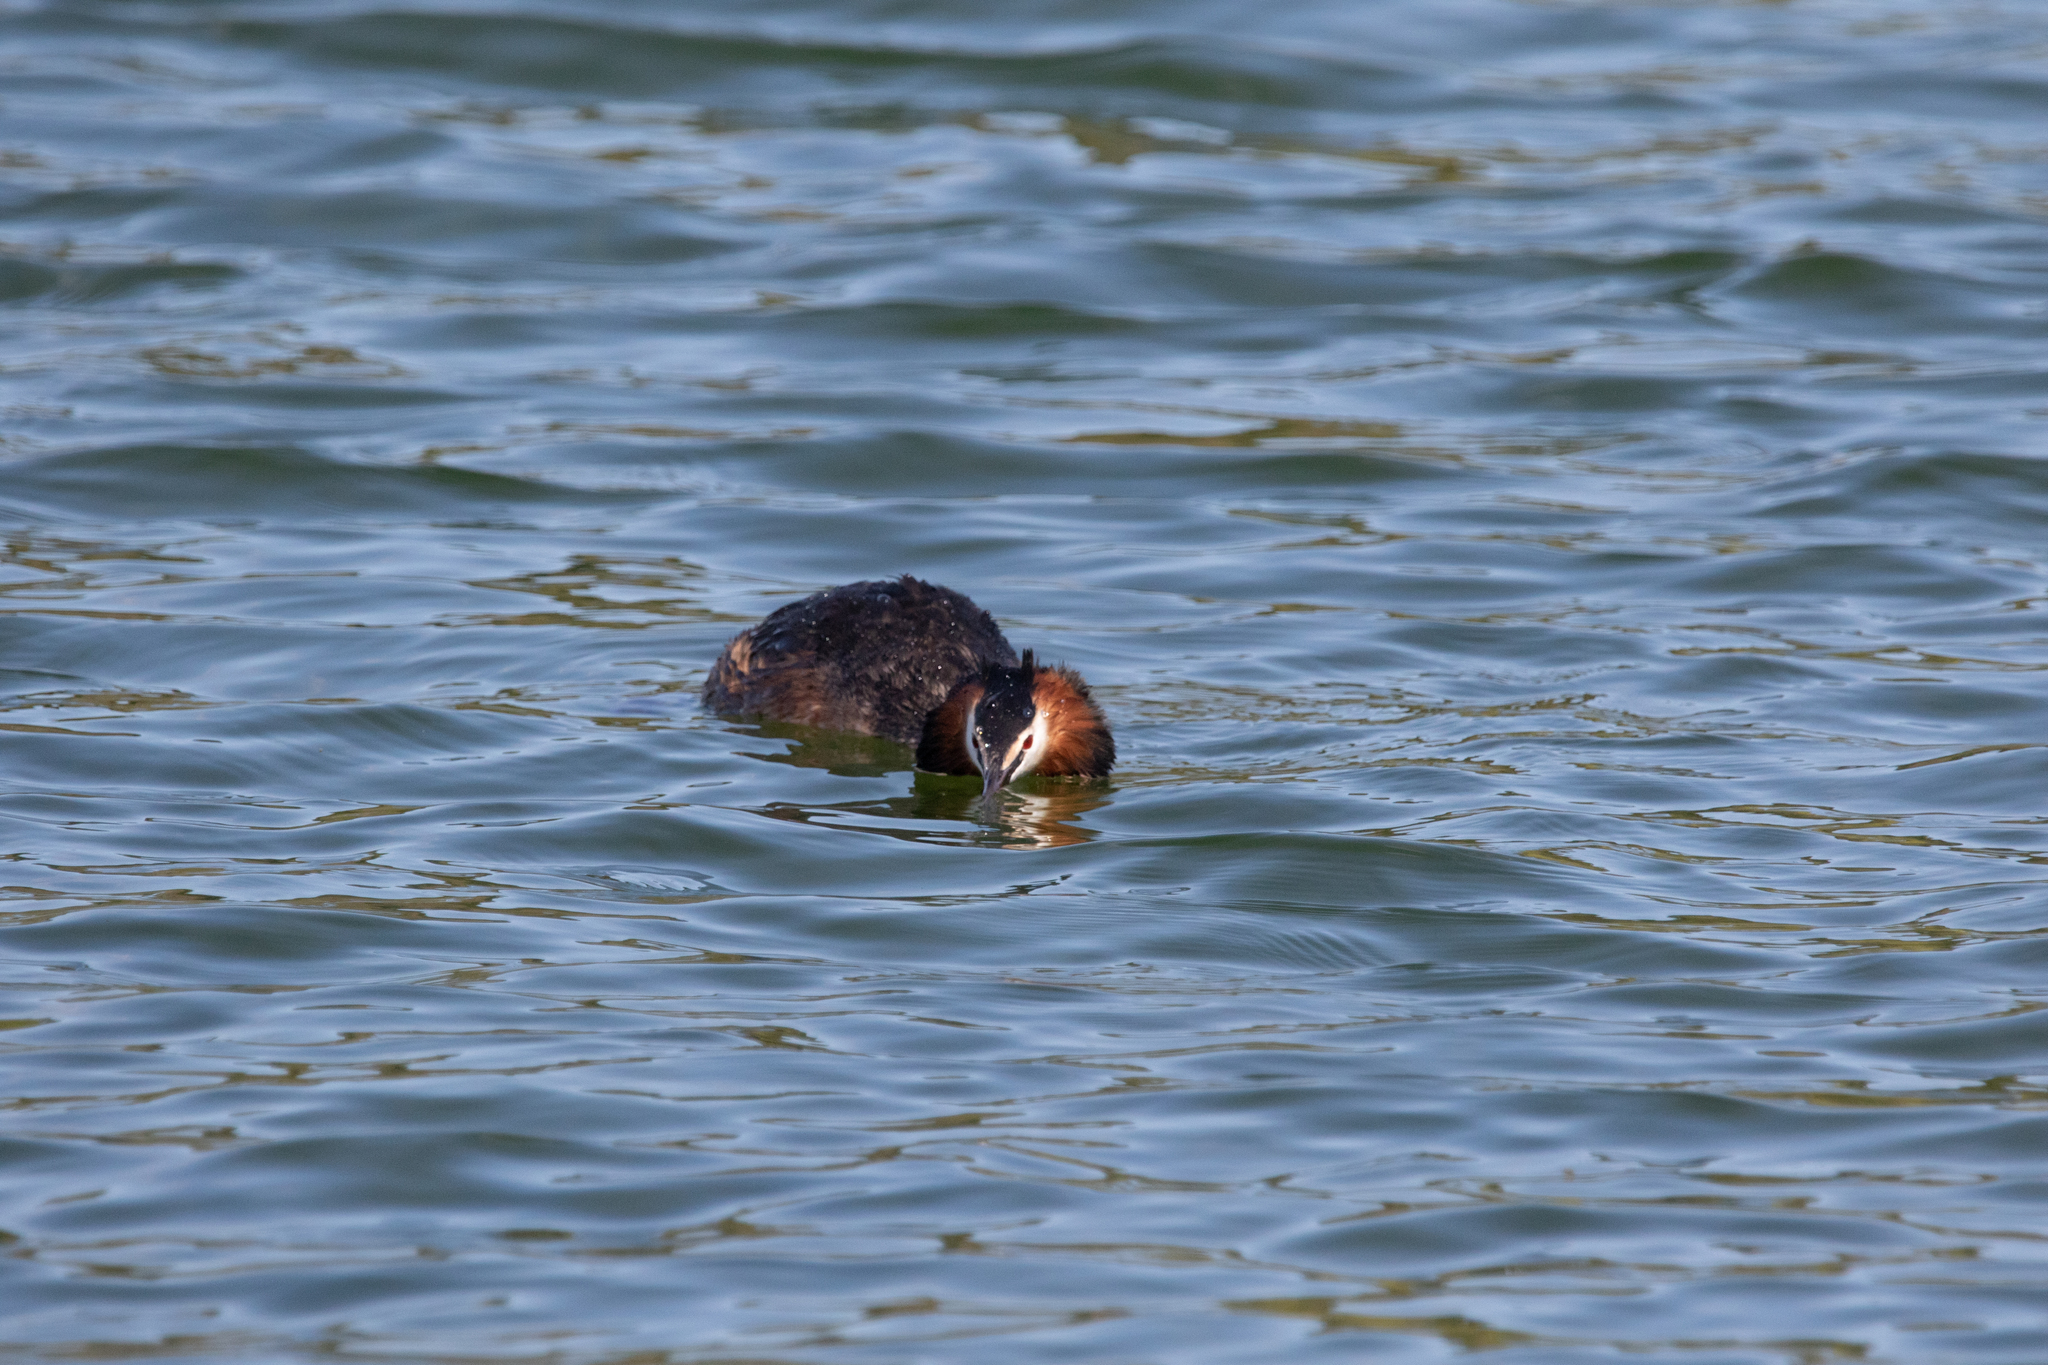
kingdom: Animalia
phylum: Chordata
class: Aves
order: Podicipediformes
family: Podicipedidae
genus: Podiceps
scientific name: Podiceps cristatus
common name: Great crested grebe
